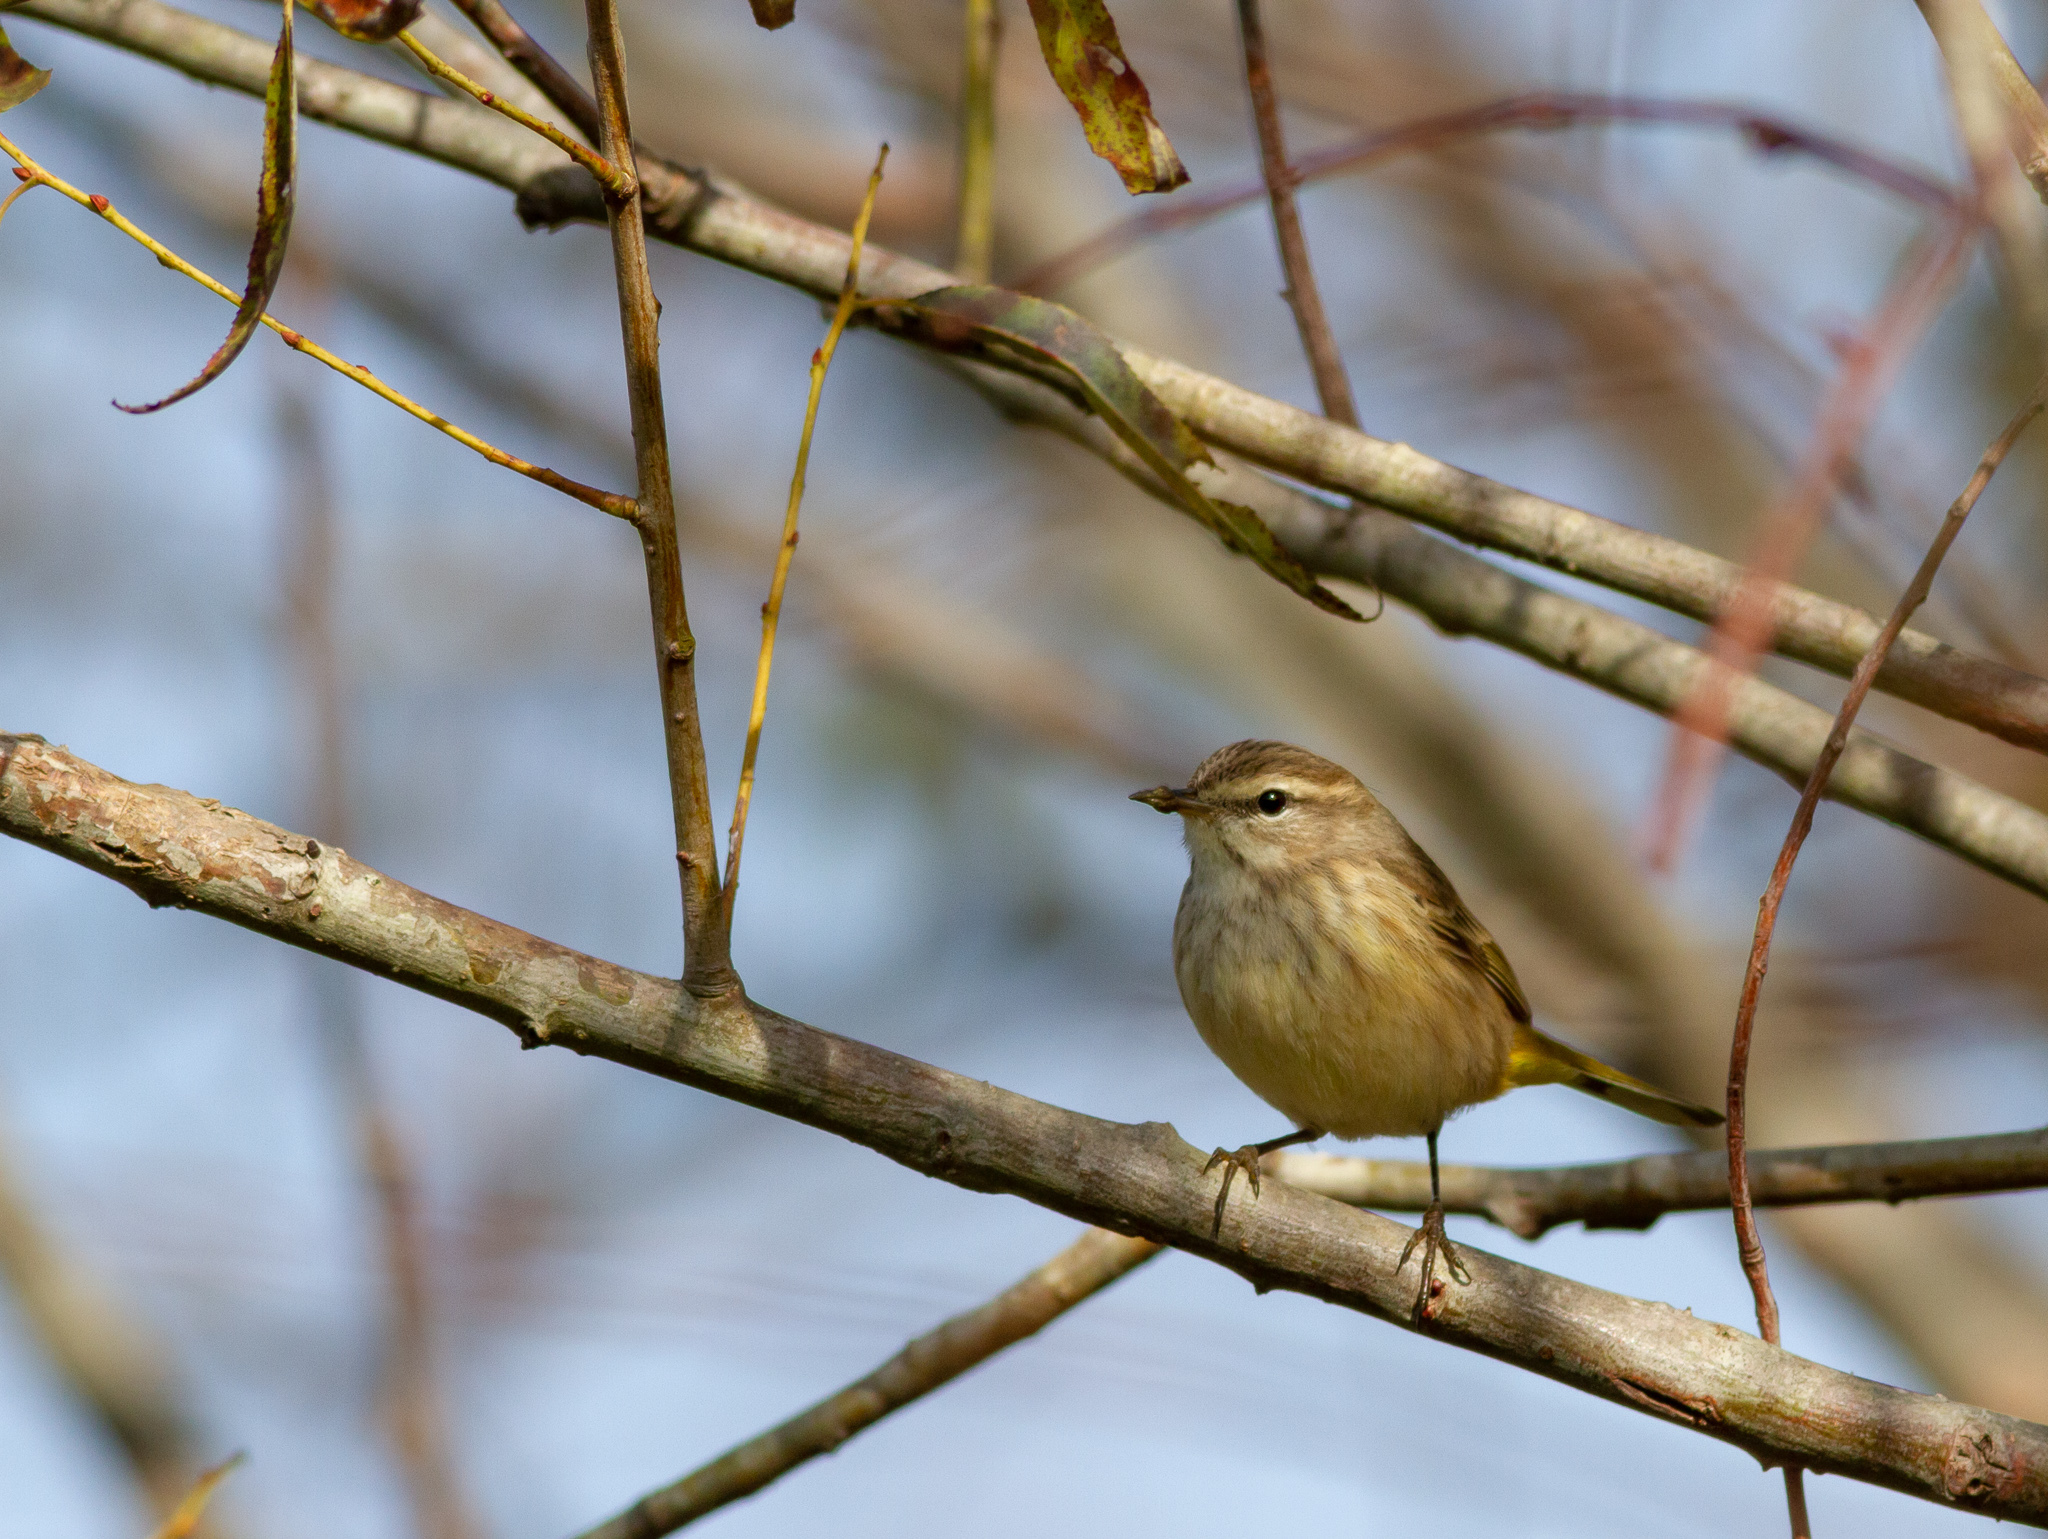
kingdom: Animalia
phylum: Chordata
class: Aves
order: Passeriformes
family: Parulidae
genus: Setophaga
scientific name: Setophaga palmarum
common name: Palm warbler
